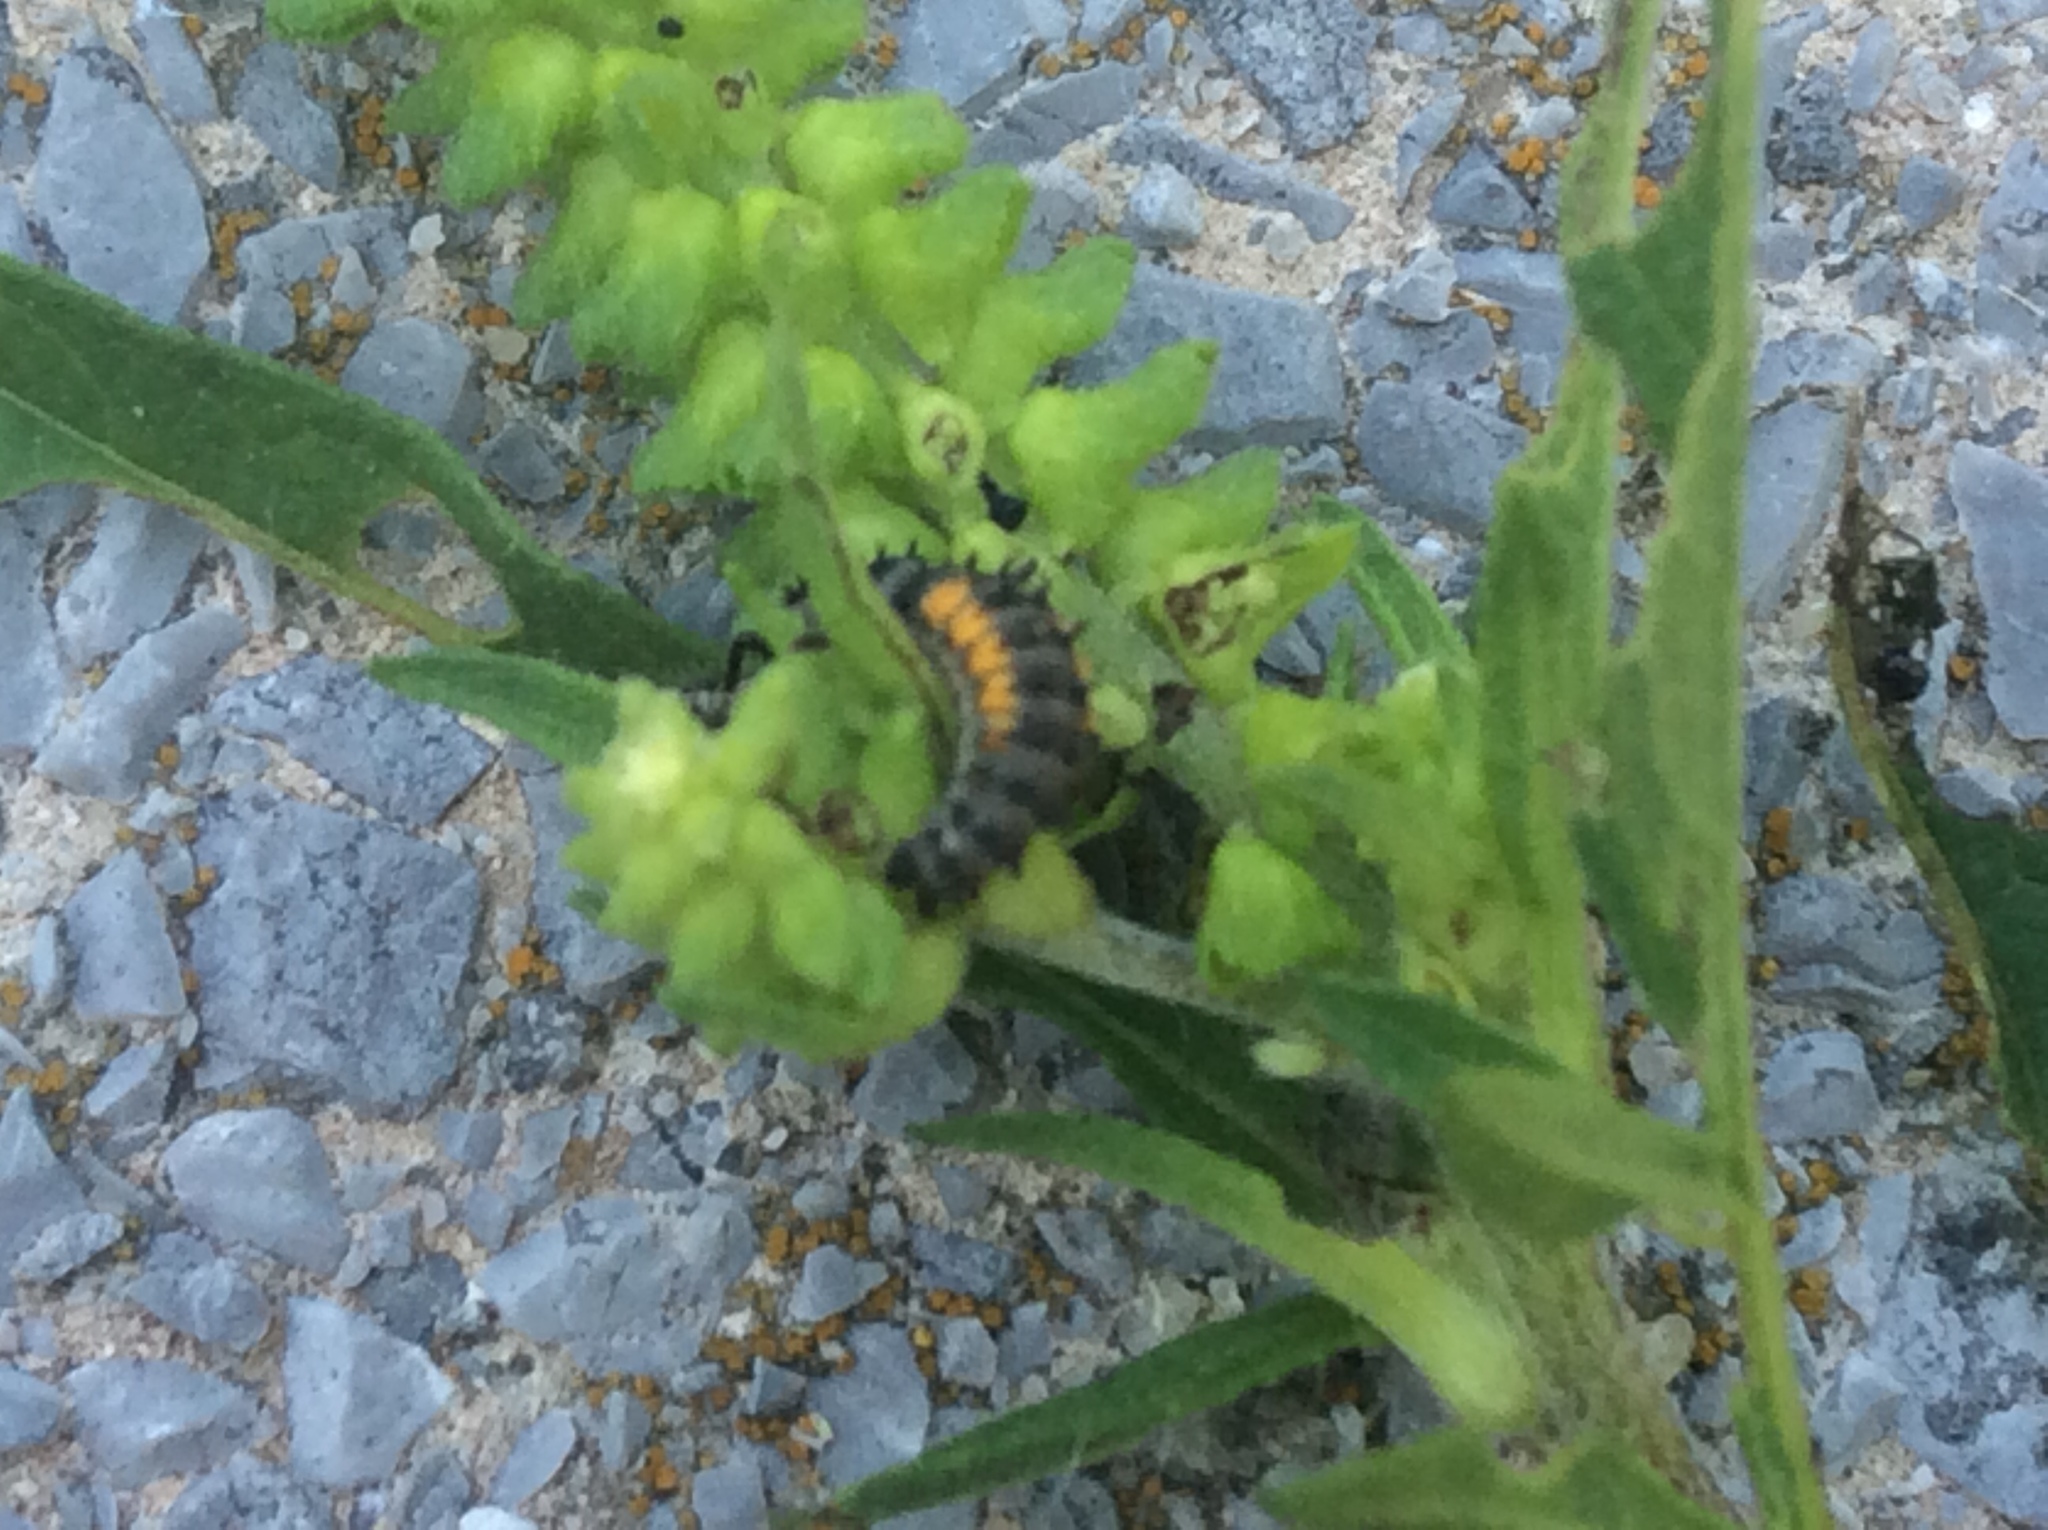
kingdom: Animalia
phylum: Arthropoda
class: Insecta
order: Coleoptera
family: Coccinellidae
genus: Harmonia
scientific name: Harmonia axyridis
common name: Harlequin ladybird
